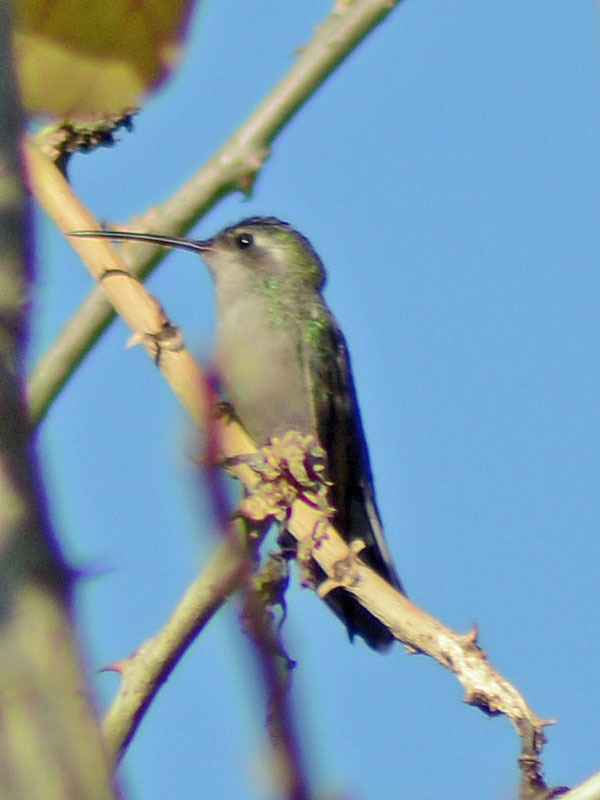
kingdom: Animalia
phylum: Chordata
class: Aves
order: Apodiformes
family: Trochilidae
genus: Cynanthus
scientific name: Cynanthus latirostris
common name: Broad-billed hummingbird
